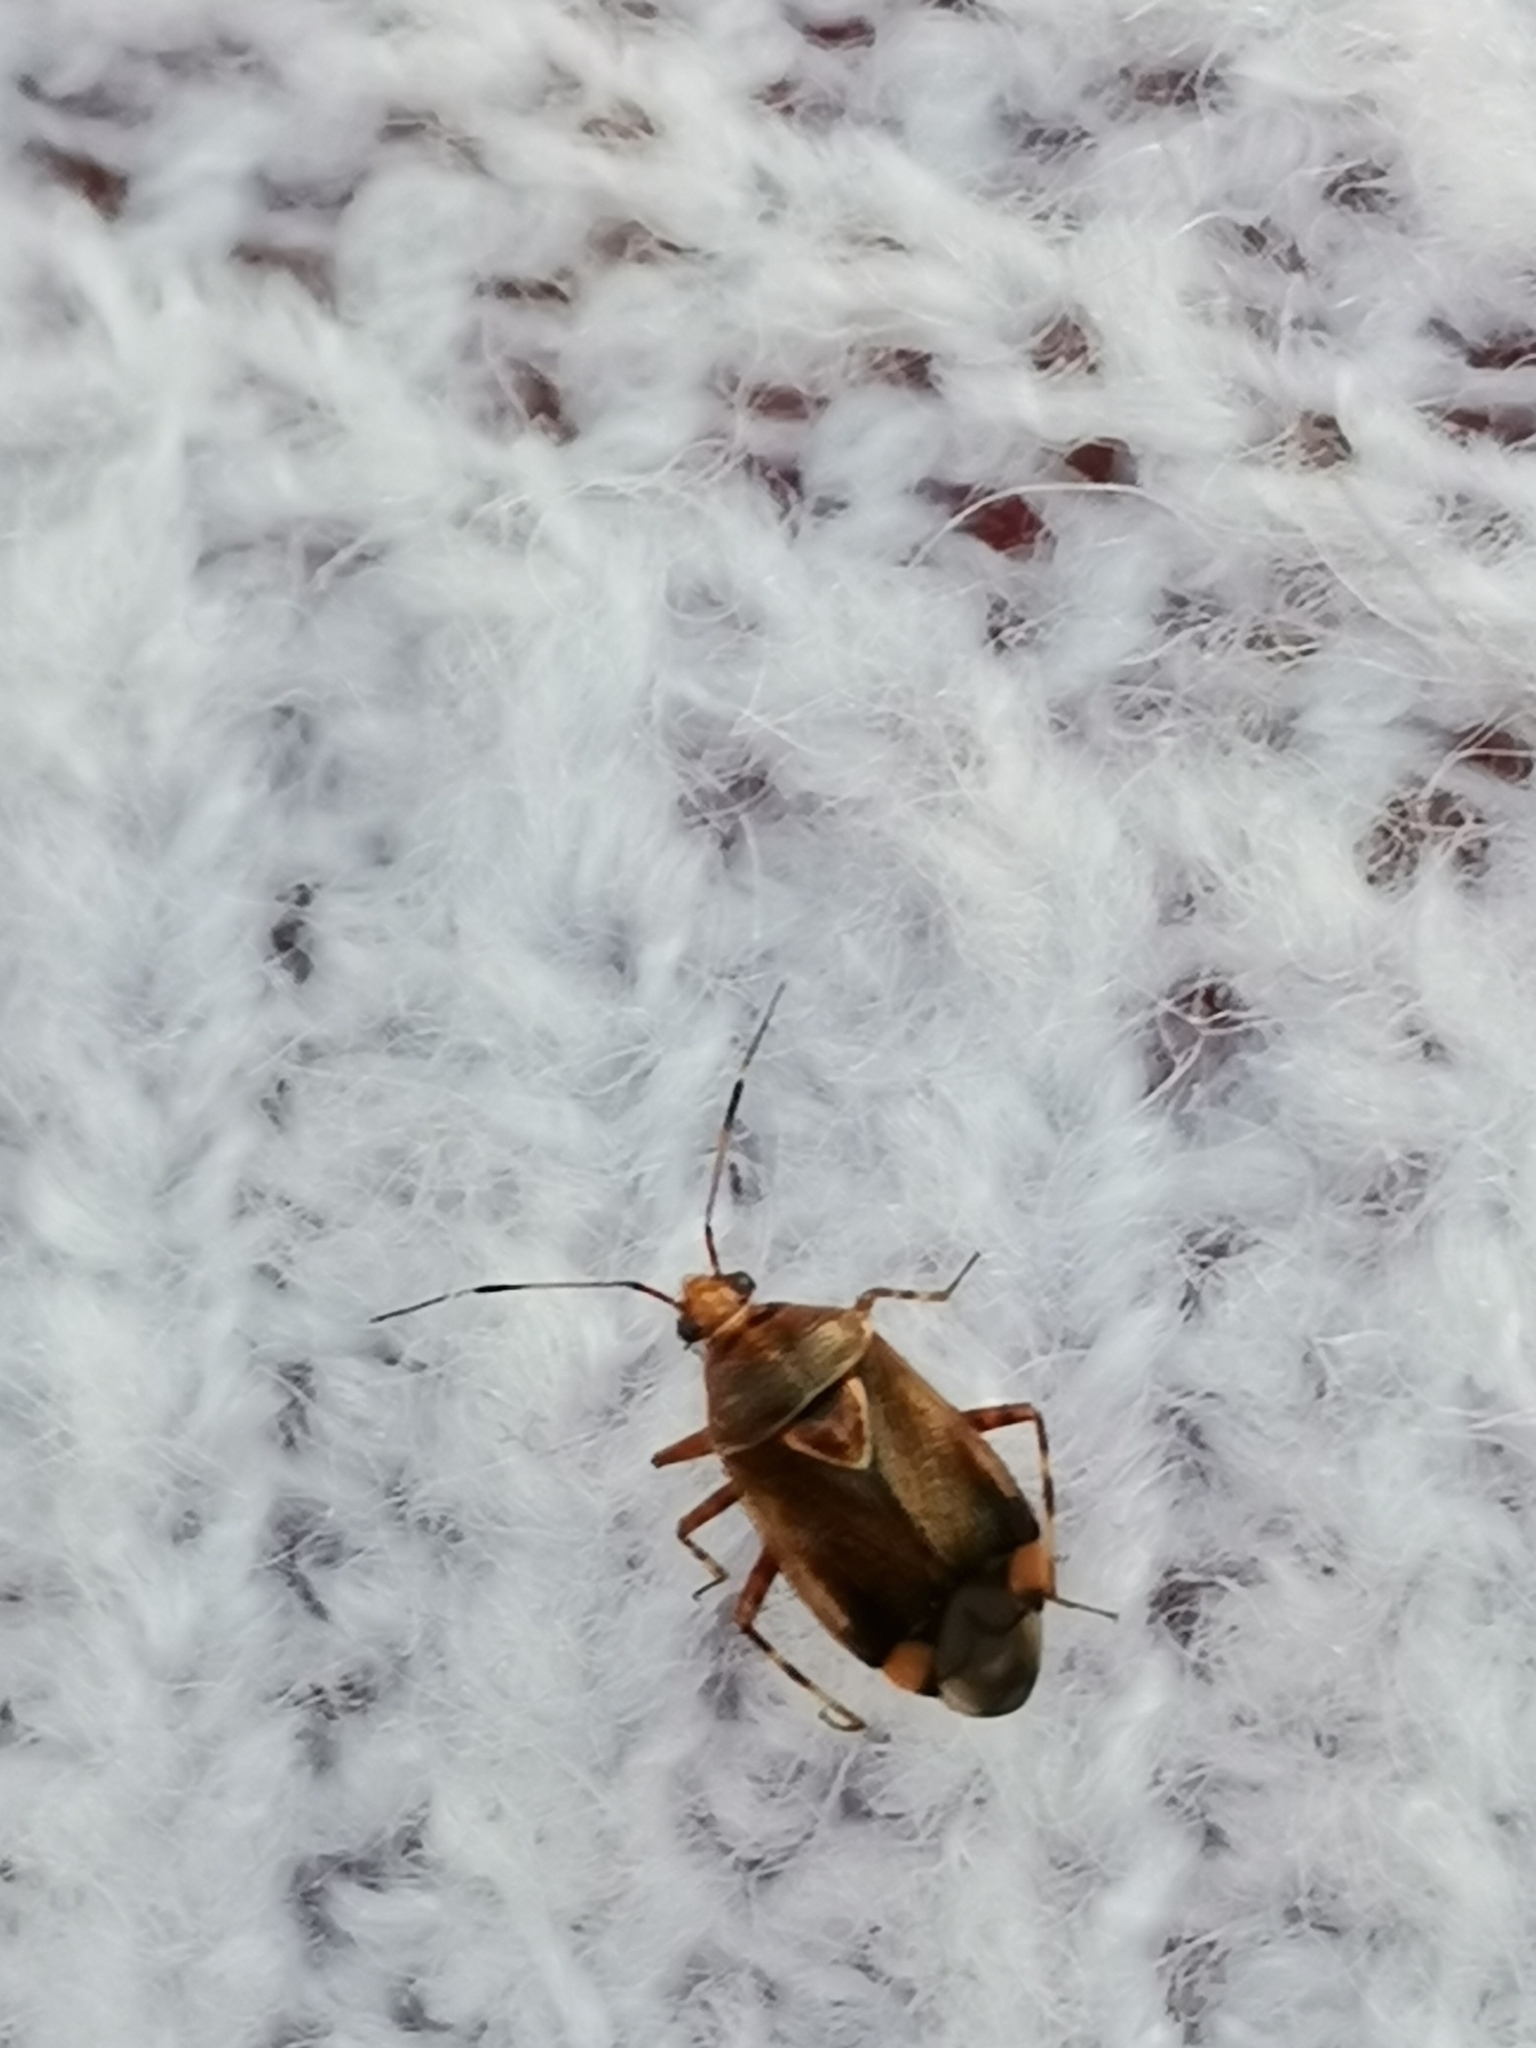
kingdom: Animalia
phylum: Arthropoda
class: Insecta
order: Hemiptera
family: Miridae
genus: Deraeocoris
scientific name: Deraeocoris flavilinea
